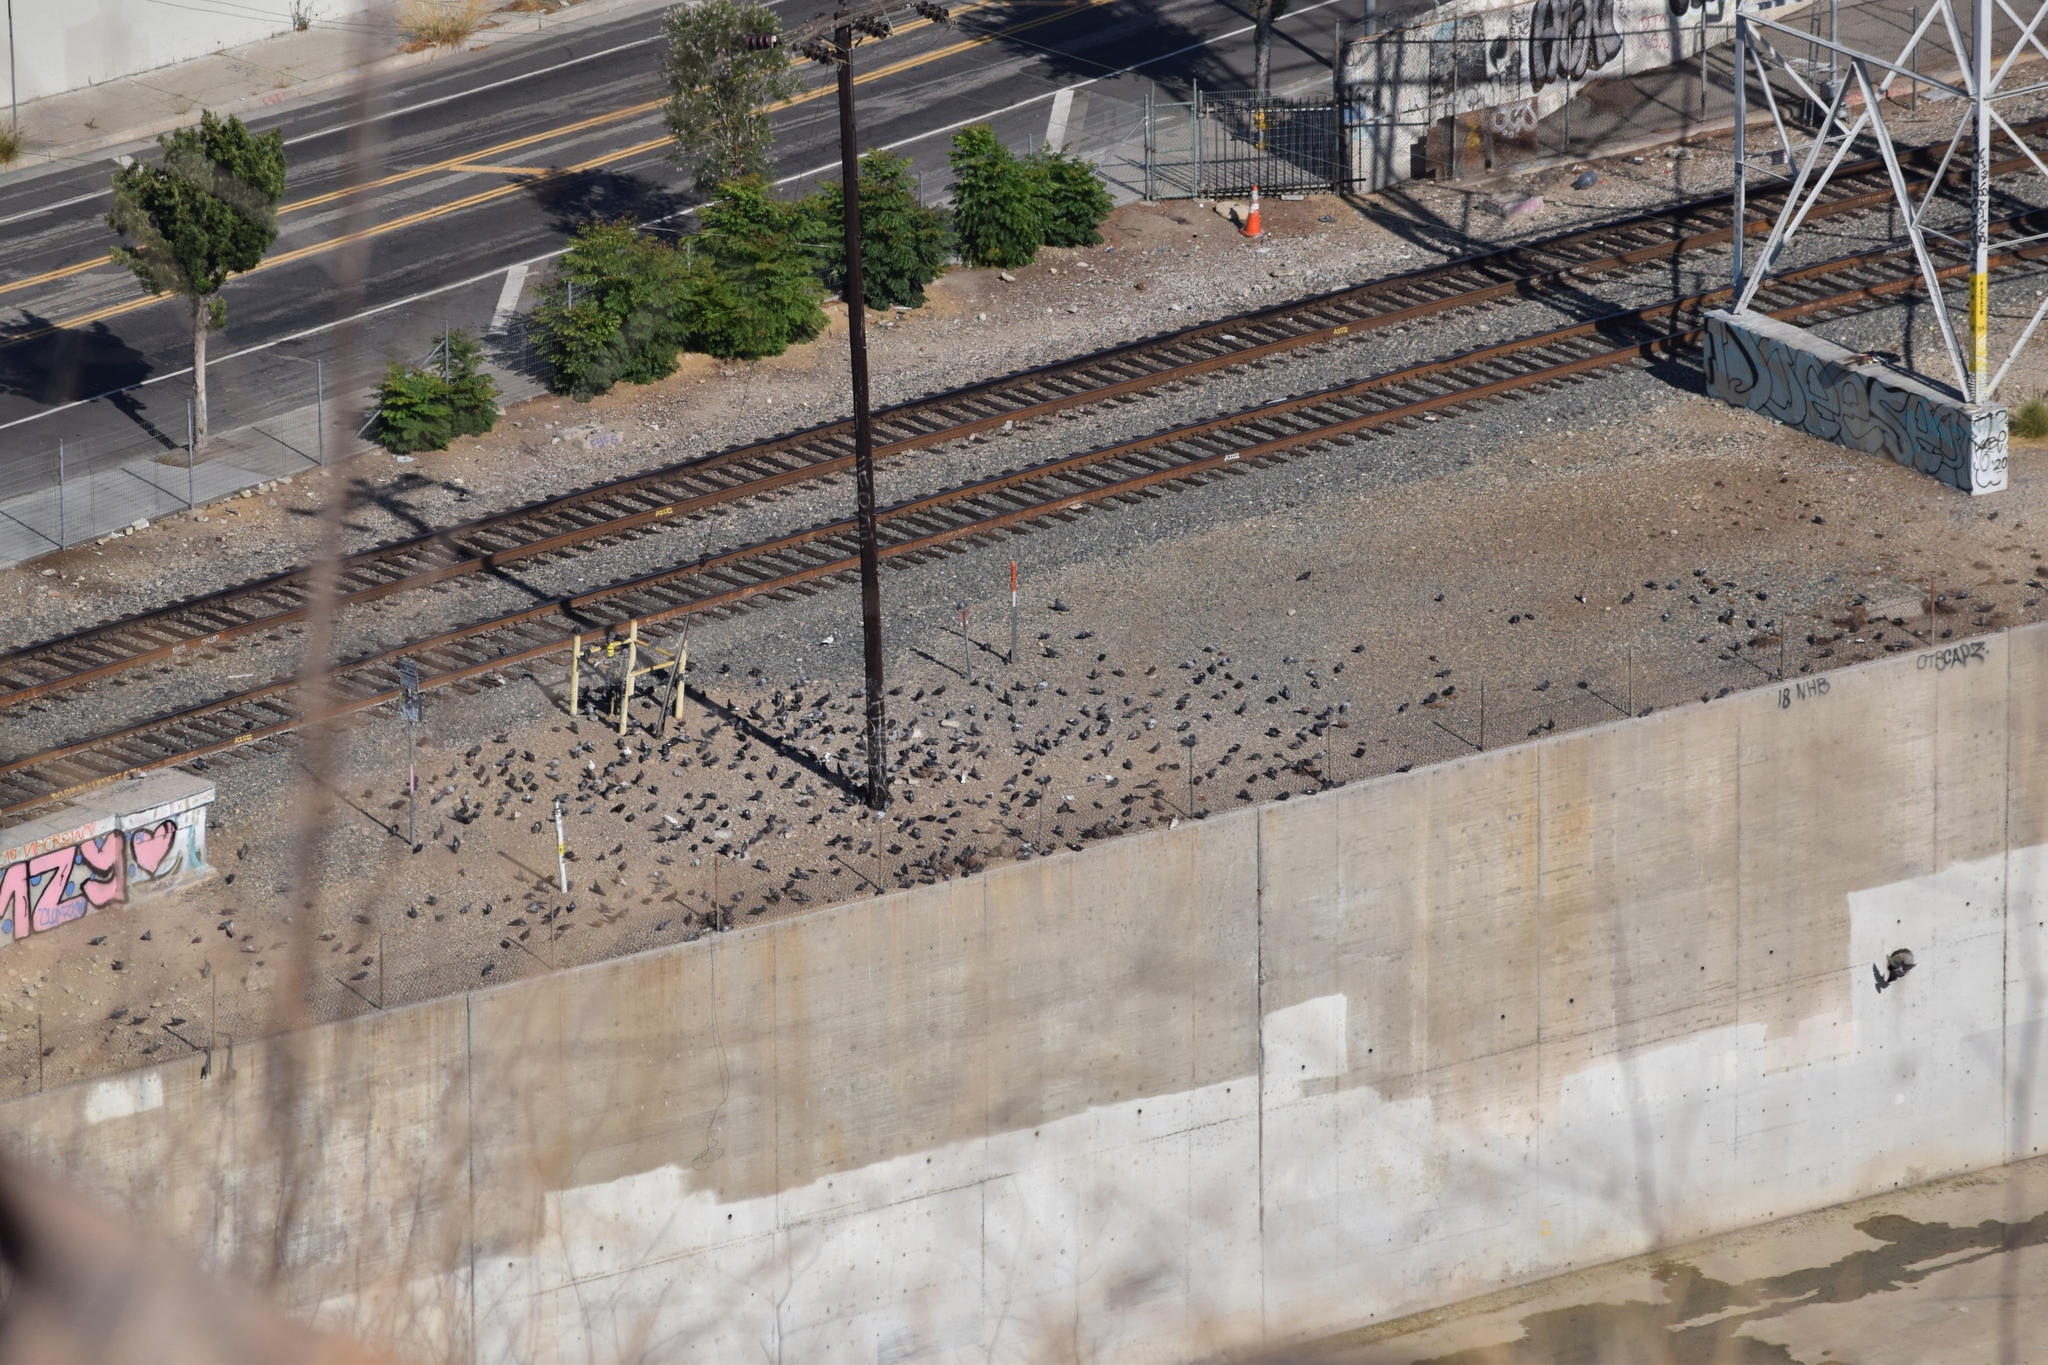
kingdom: Animalia
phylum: Chordata
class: Aves
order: Columbiformes
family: Columbidae
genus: Columba
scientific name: Columba livia
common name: Rock pigeon
